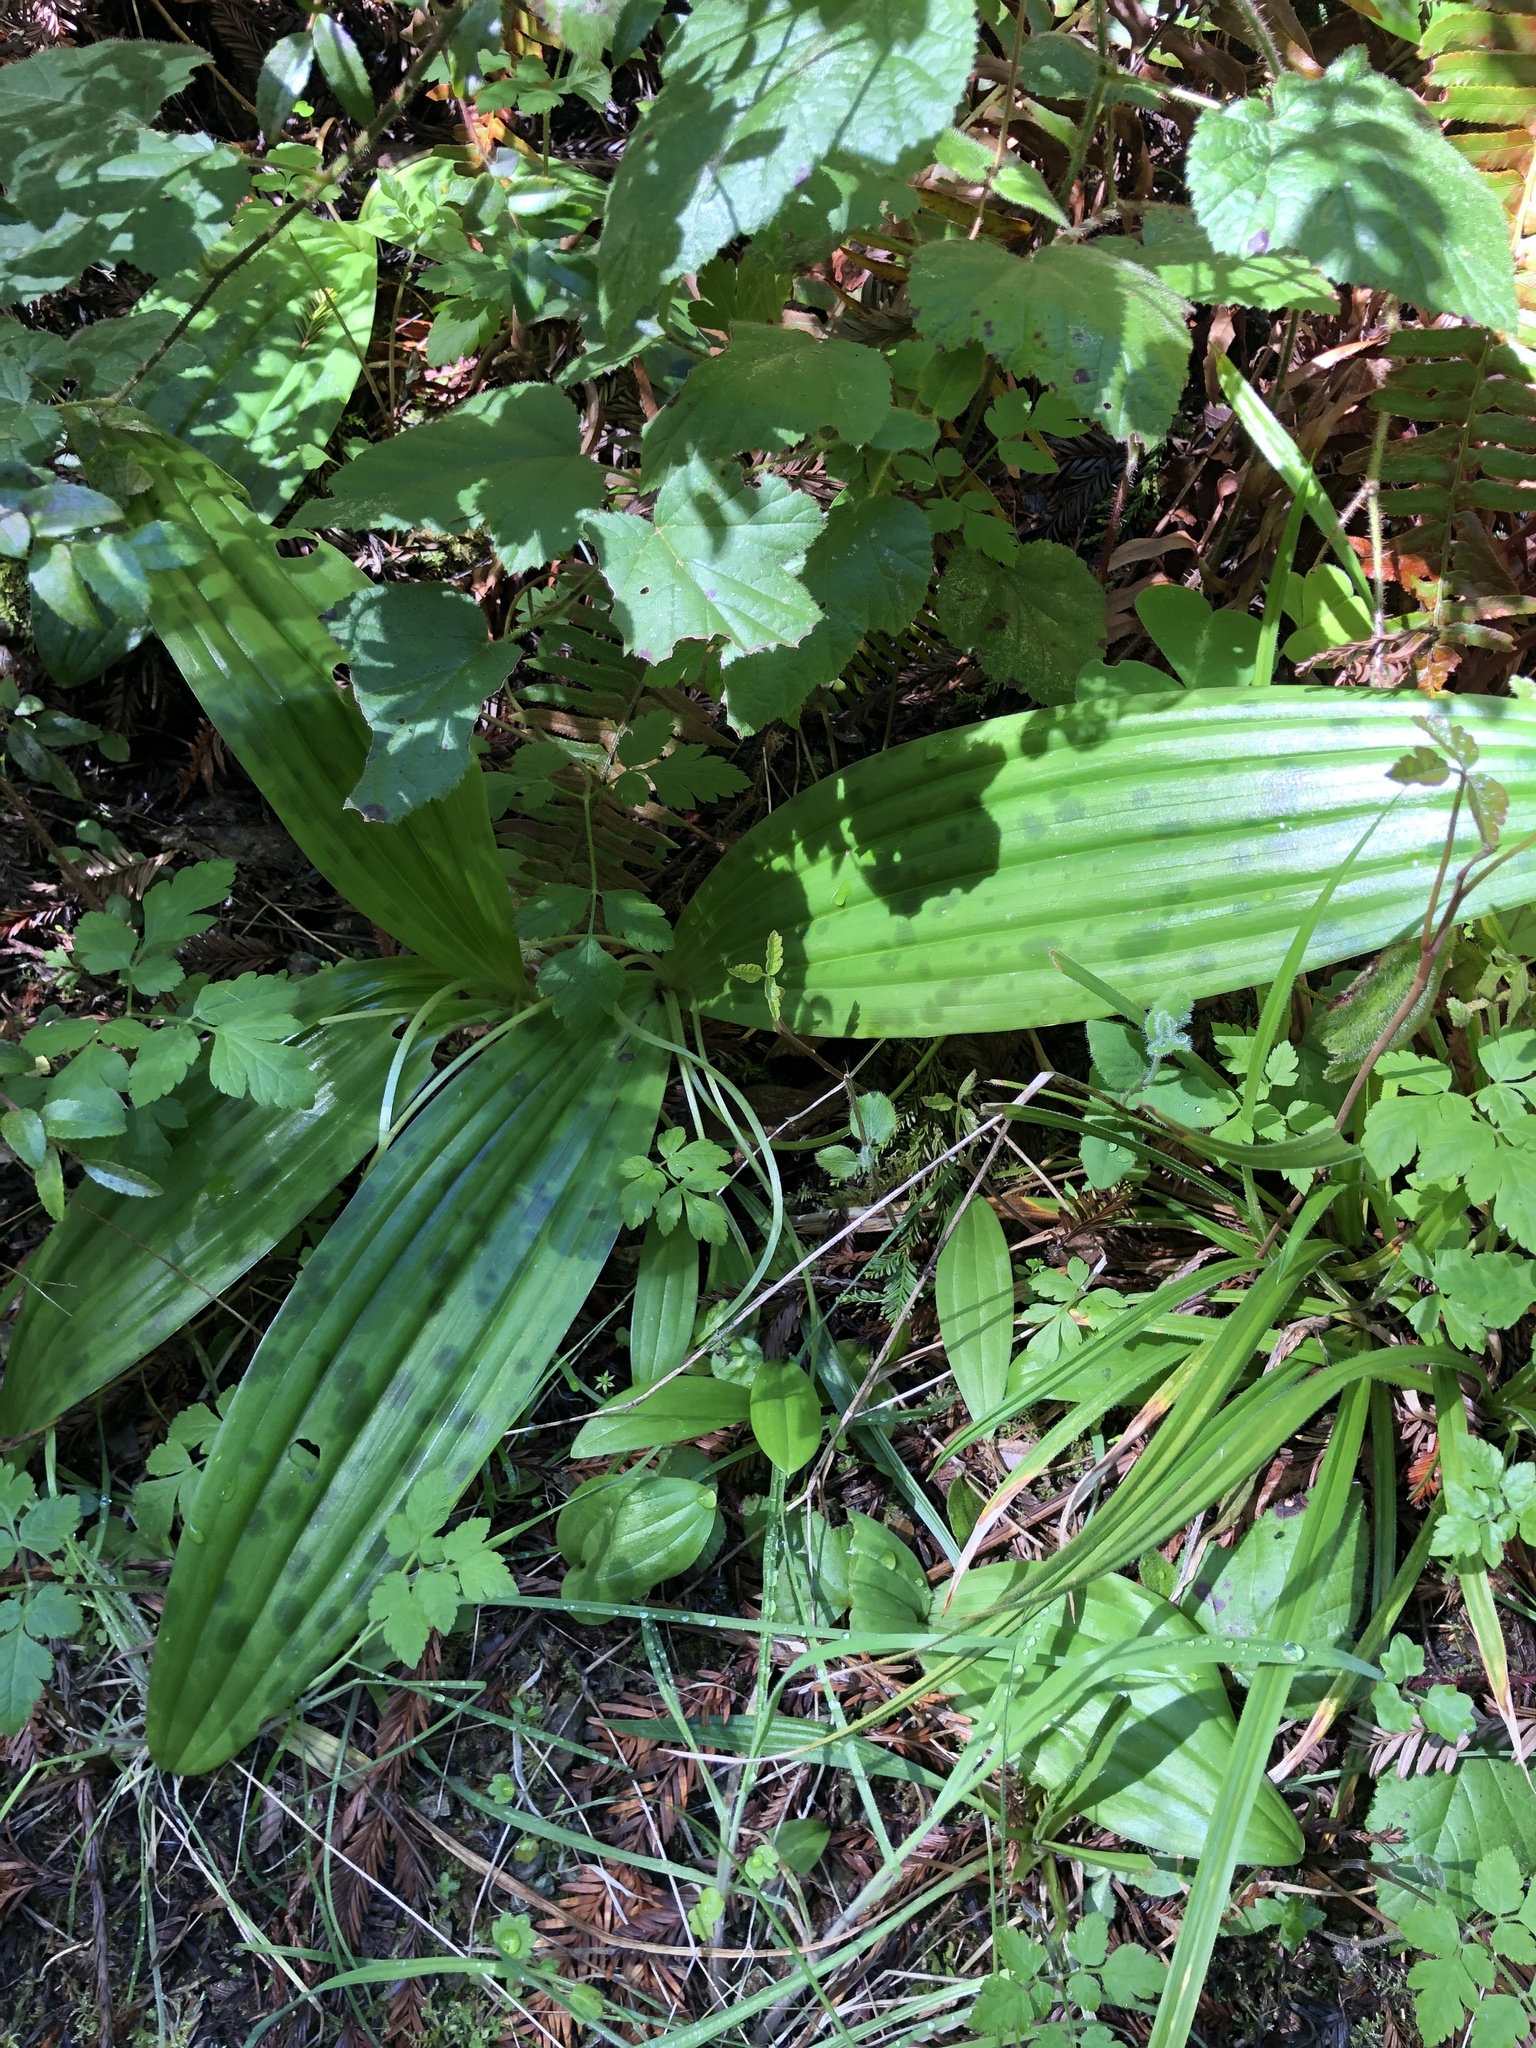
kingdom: Plantae
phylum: Tracheophyta
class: Liliopsida
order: Liliales
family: Liliaceae
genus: Scoliopus
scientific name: Scoliopus bigelovii
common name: Foetid adder's-tongue
